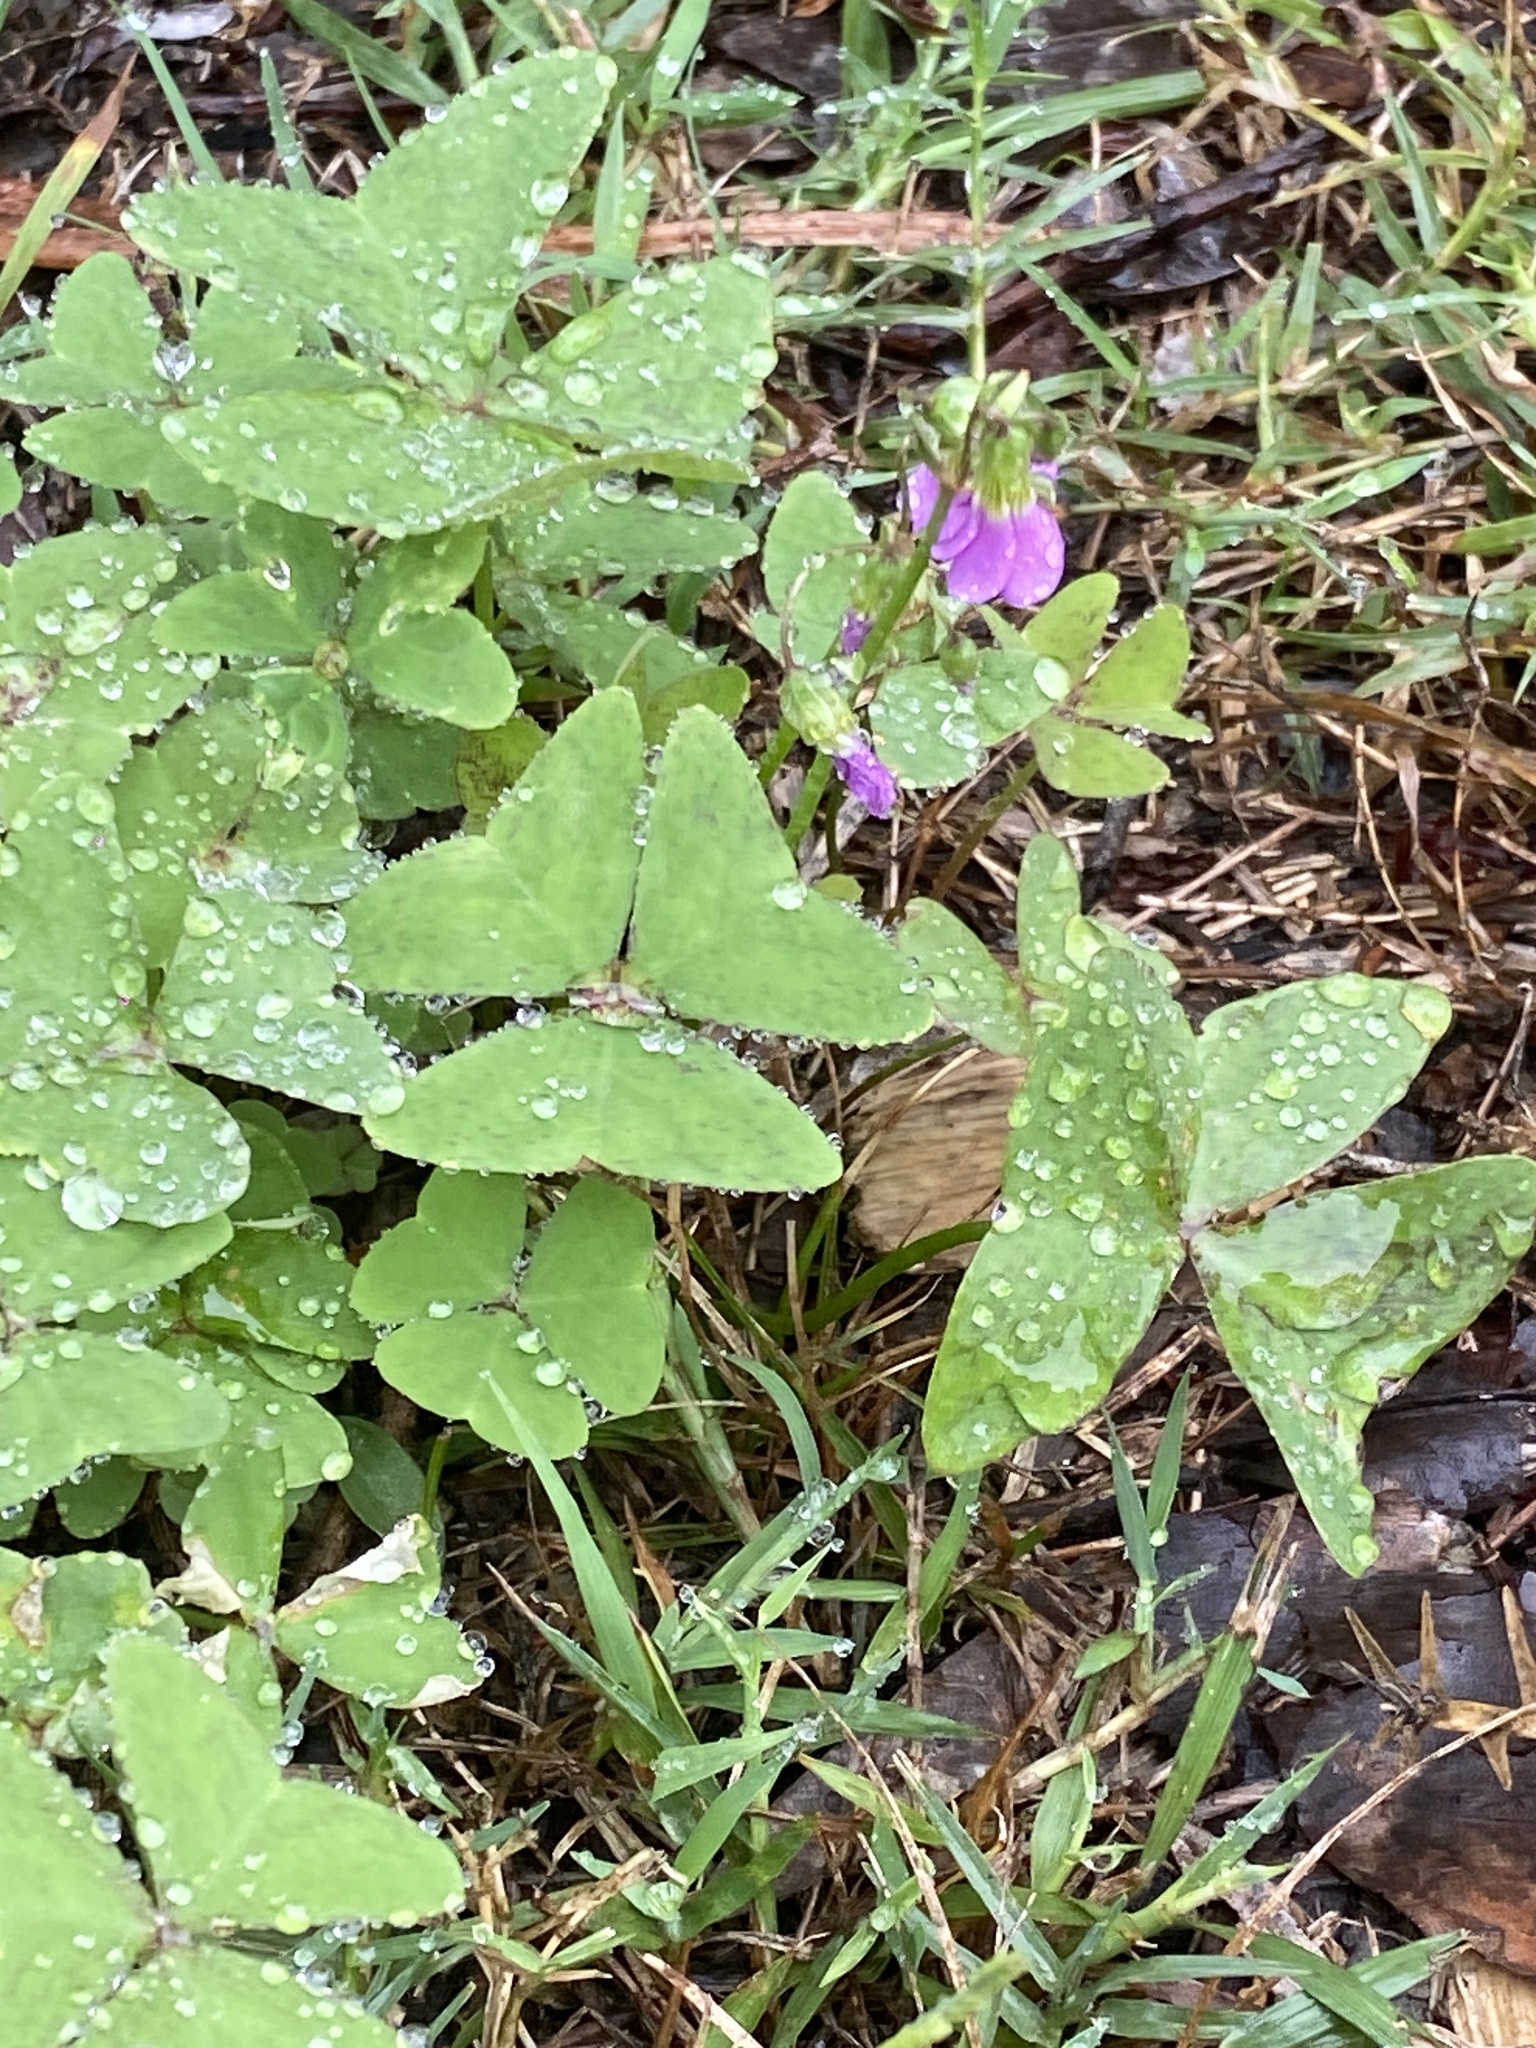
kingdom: Plantae
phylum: Tracheophyta
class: Magnoliopsida
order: Oxalidales
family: Oxalidaceae
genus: Oxalis
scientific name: Oxalis latifolia
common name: Garden pink-sorrel
